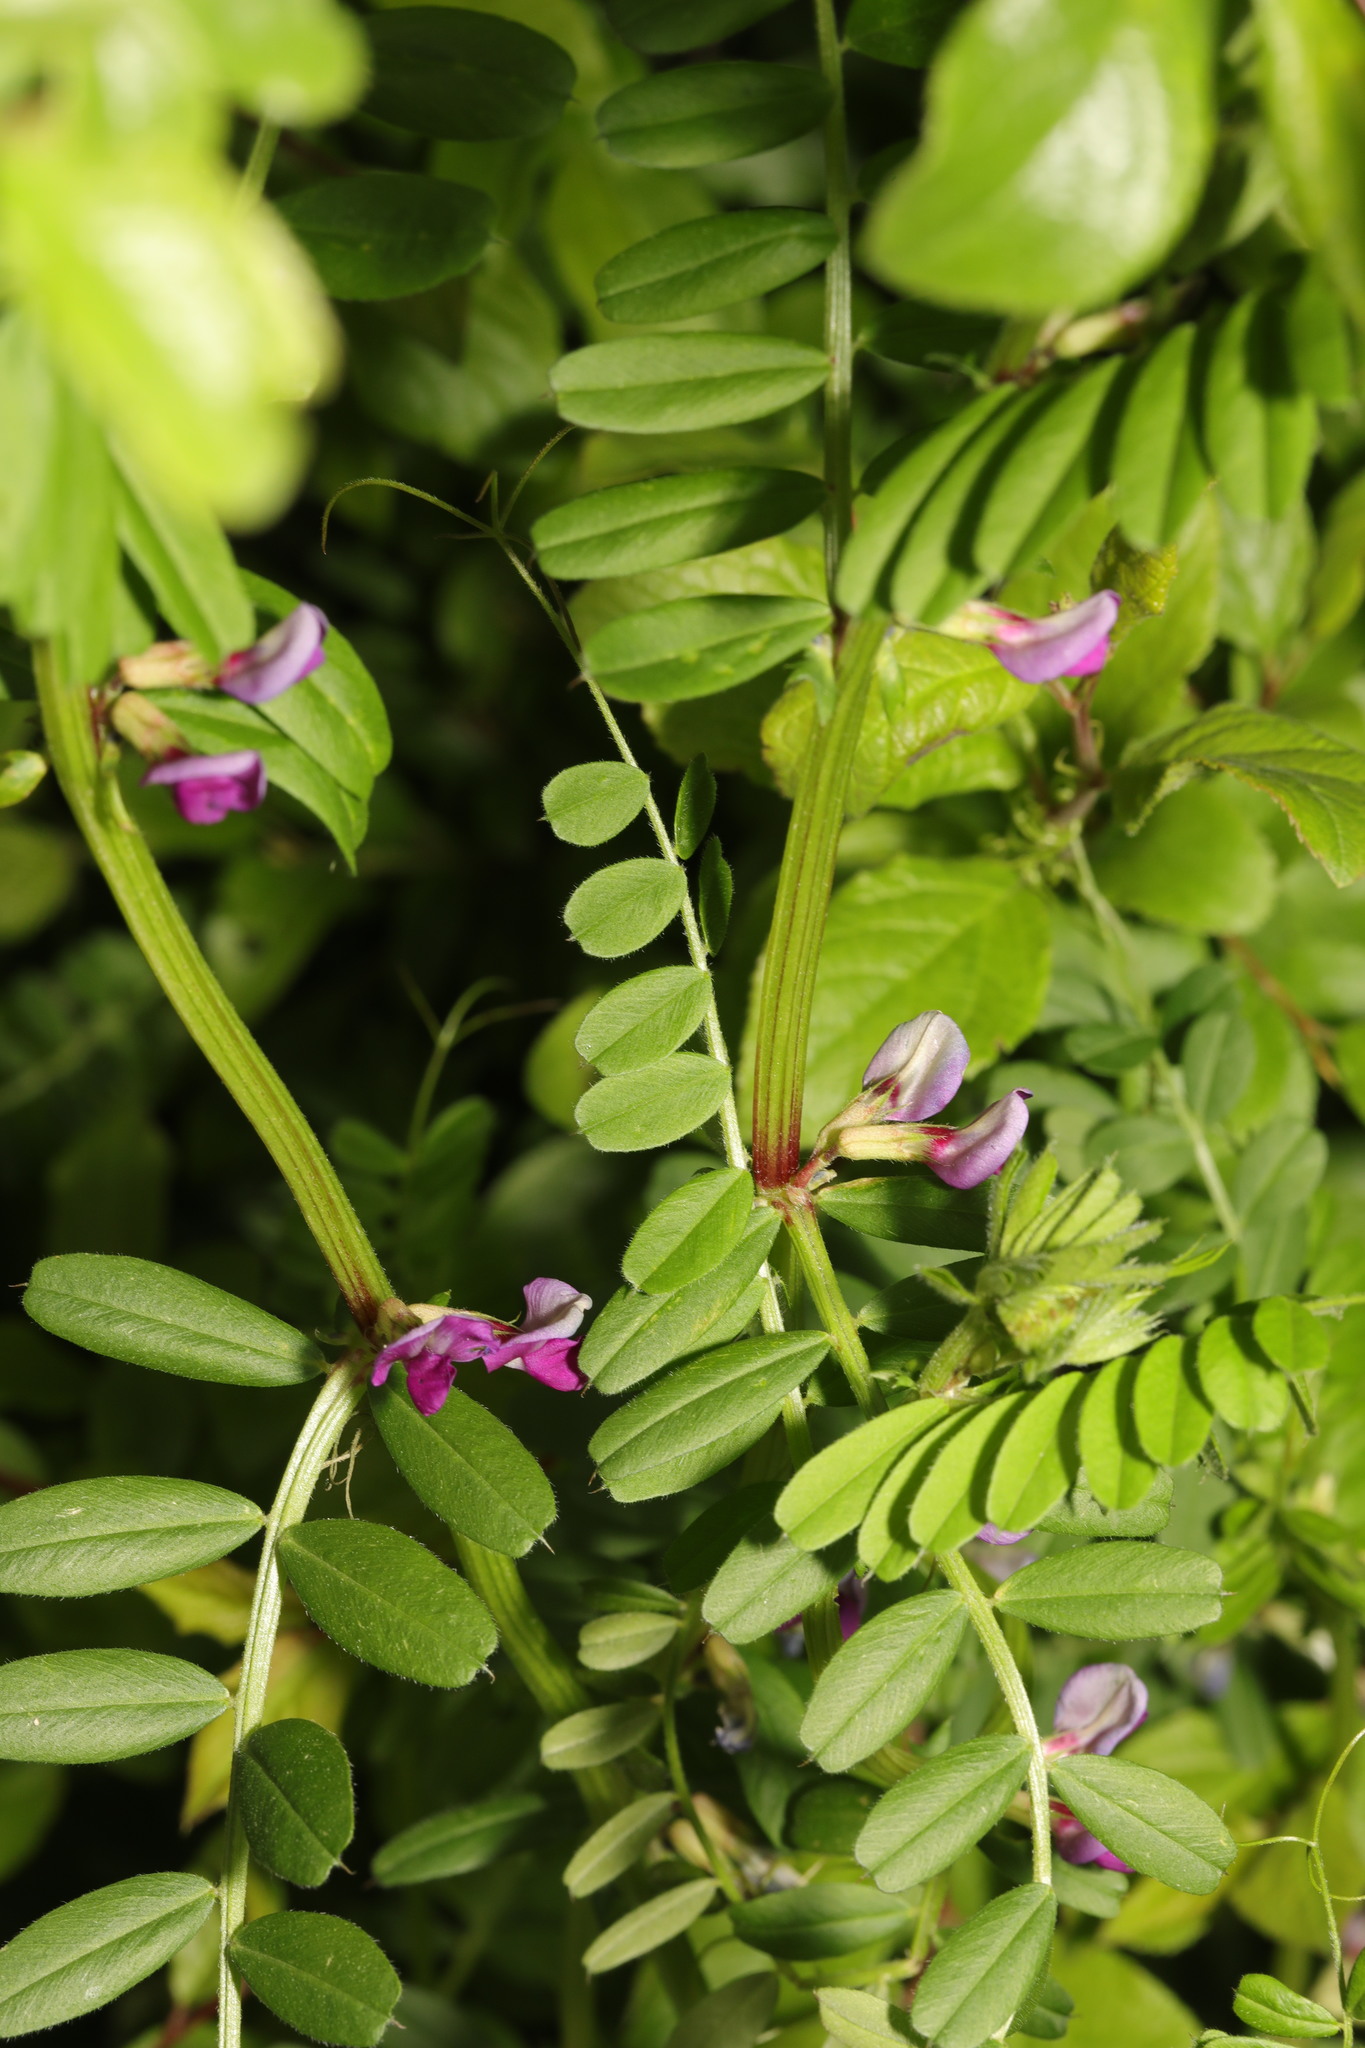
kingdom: Plantae
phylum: Tracheophyta
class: Magnoliopsida
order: Fabales
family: Fabaceae
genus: Vicia
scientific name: Vicia sativa
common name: Garden vetch
